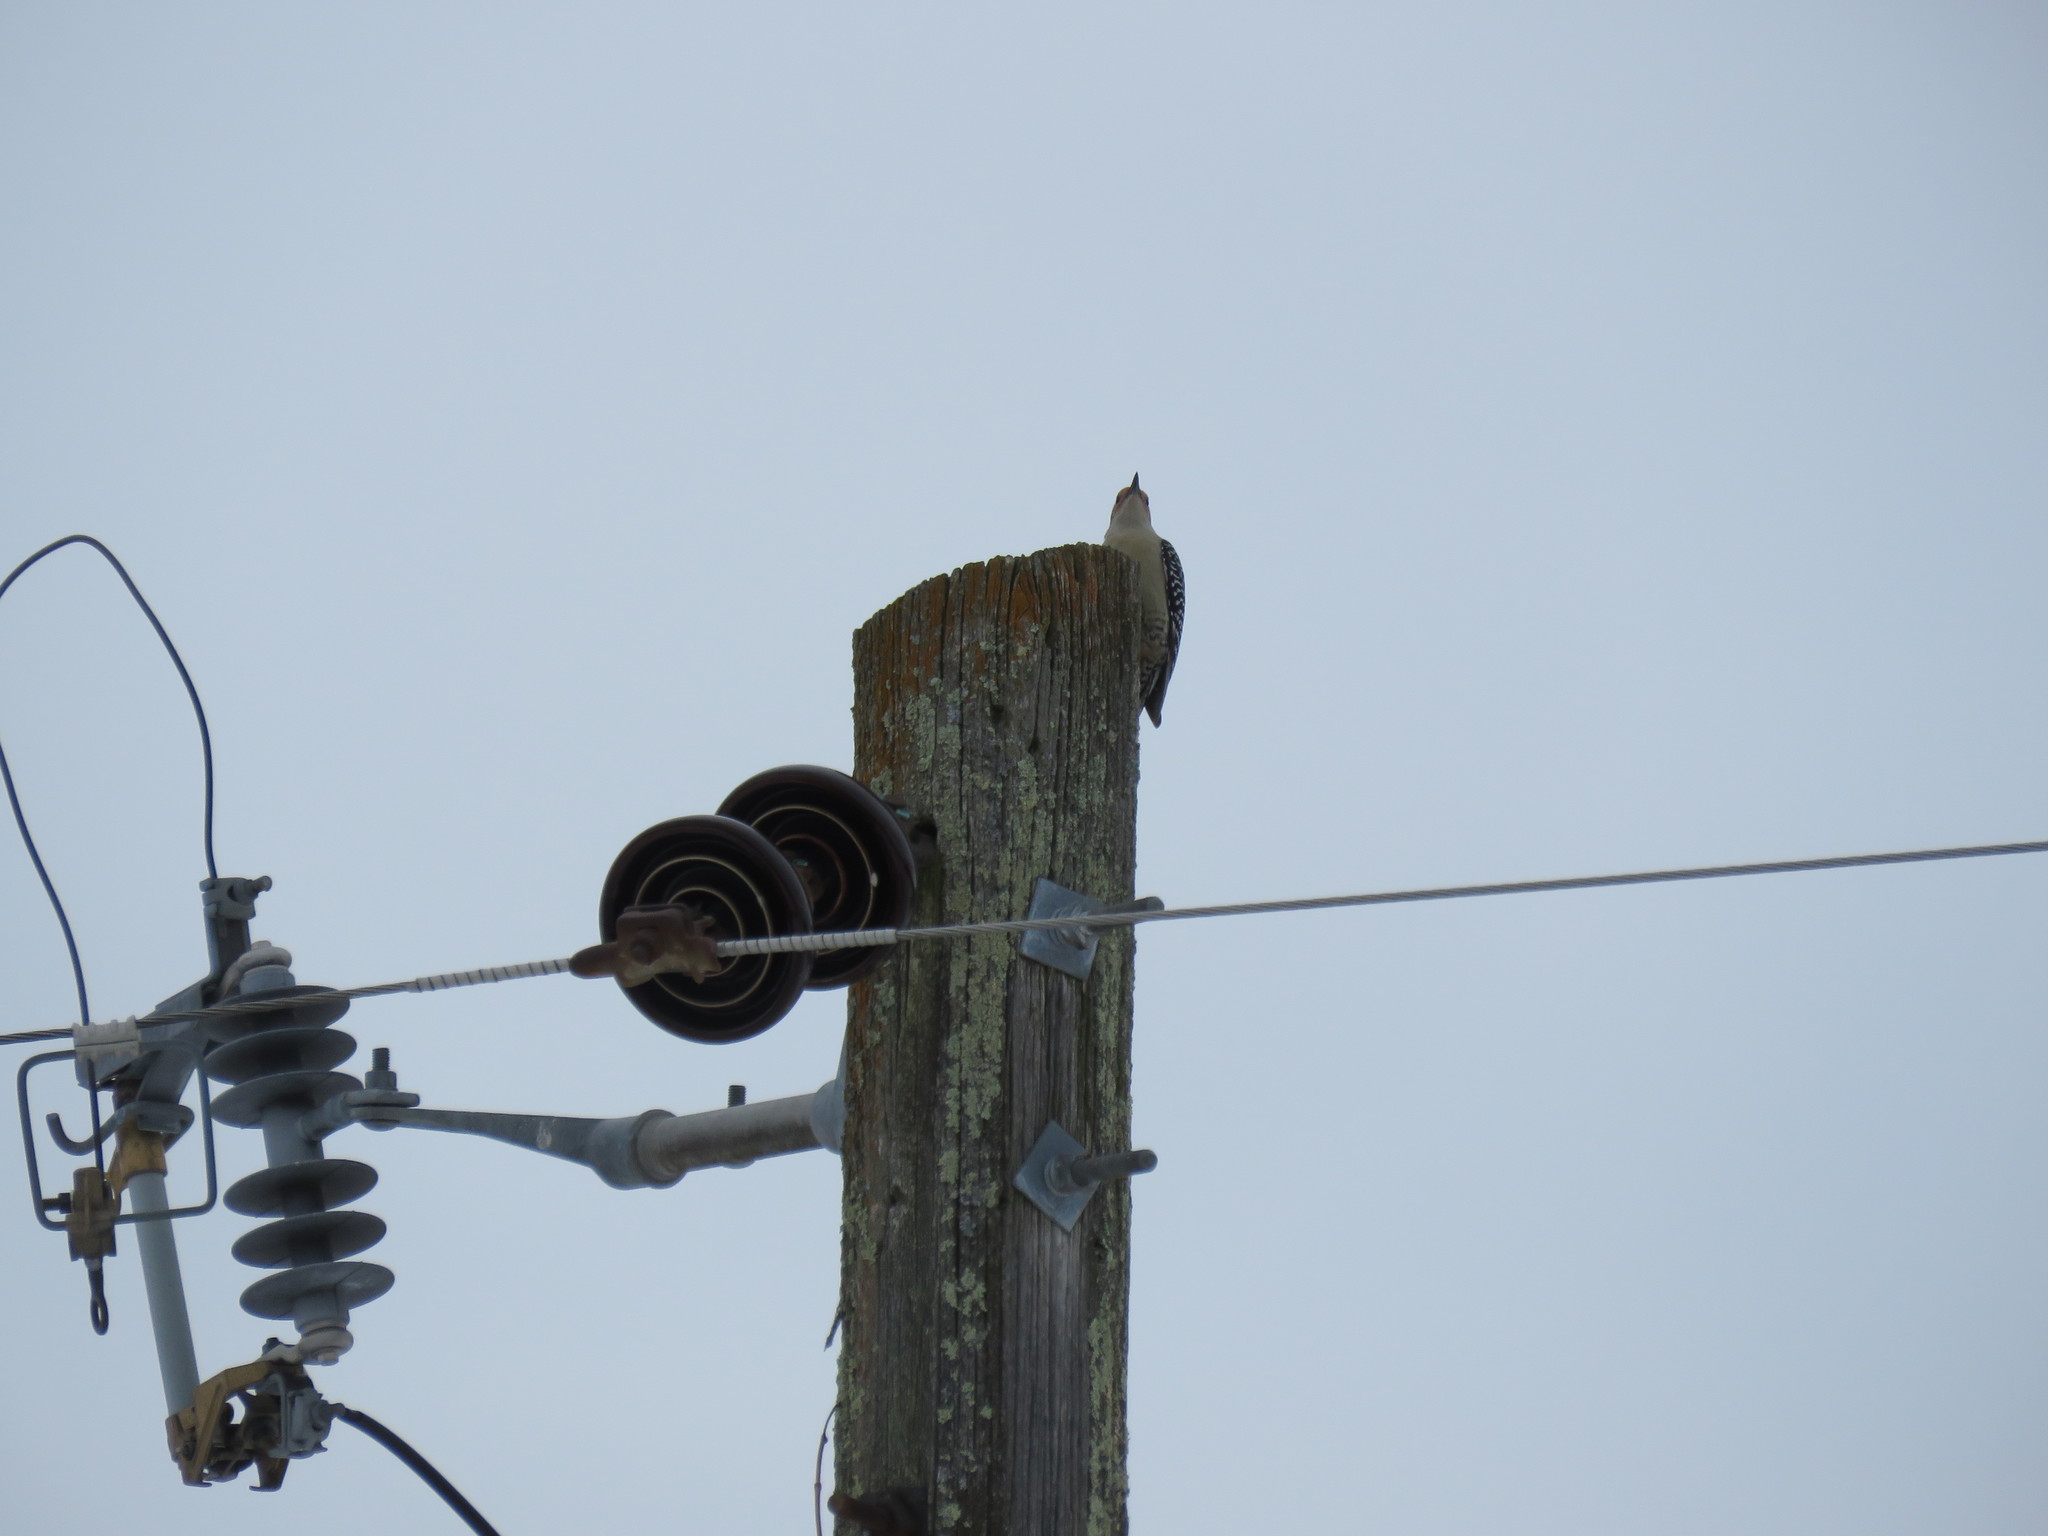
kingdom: Animalia
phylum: Chordata
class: Aves
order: Piciformes
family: Picidae
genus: Melanerpes
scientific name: Melanerpes carolinus
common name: Red-bellied woodpecker
